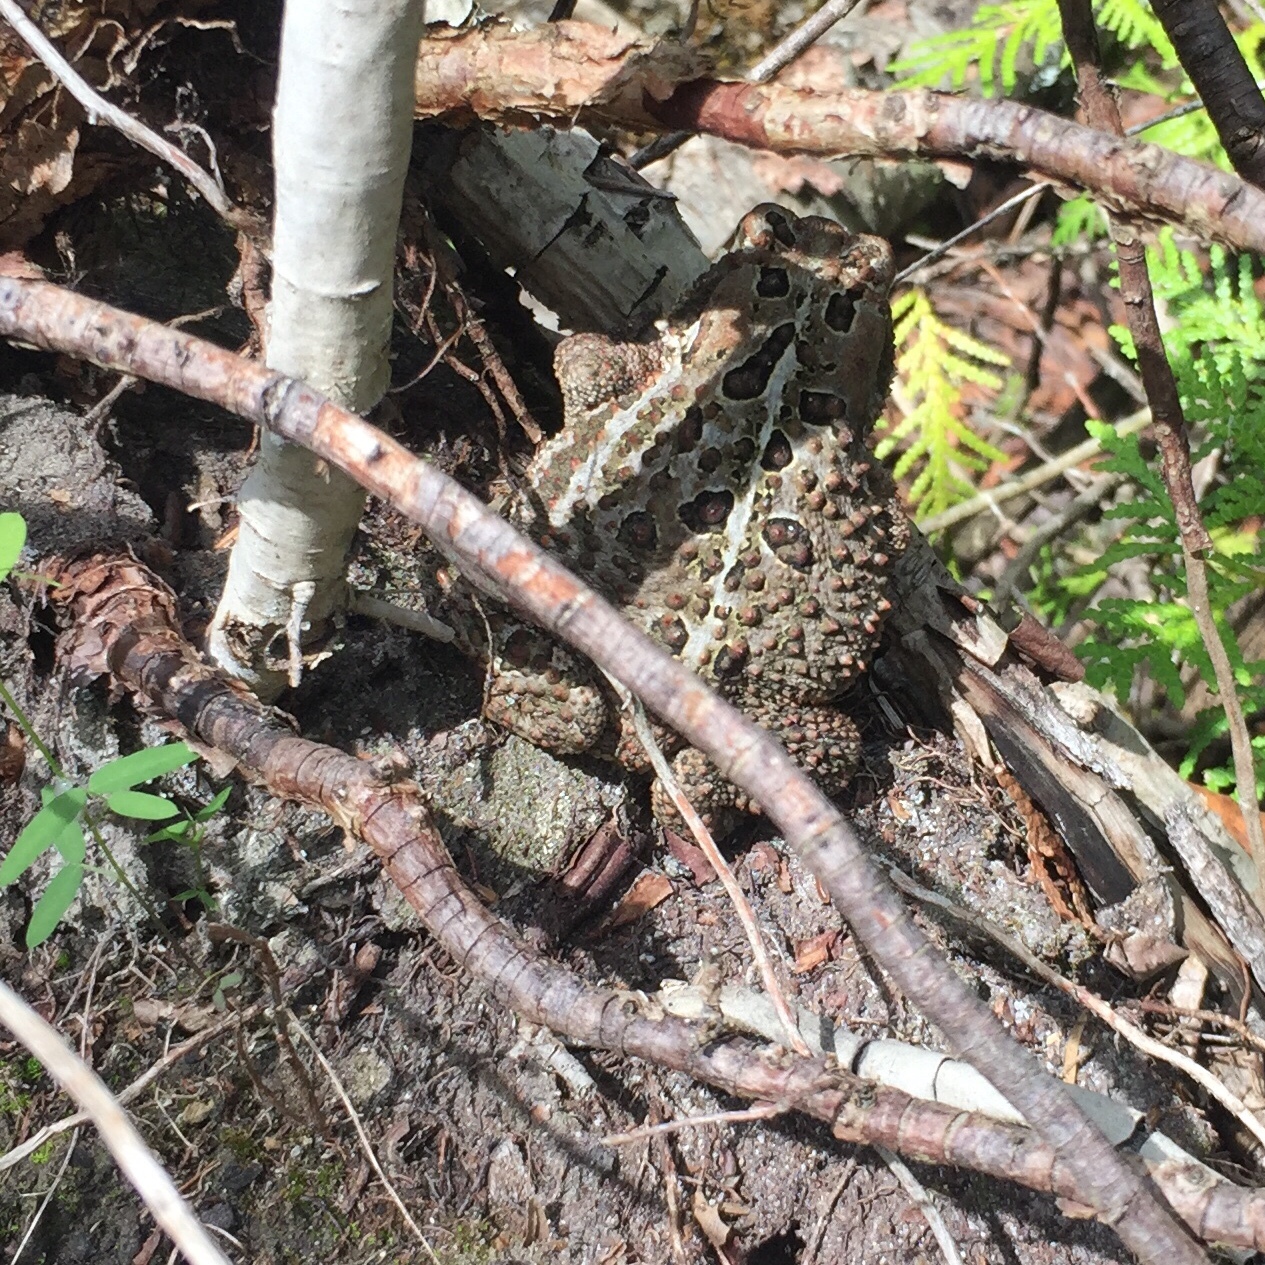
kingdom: Animalia
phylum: Chordata
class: Amphibia
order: Anura
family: Bufonidae
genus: Anaxyrus
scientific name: Anaxyrus americanus
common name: American toad
